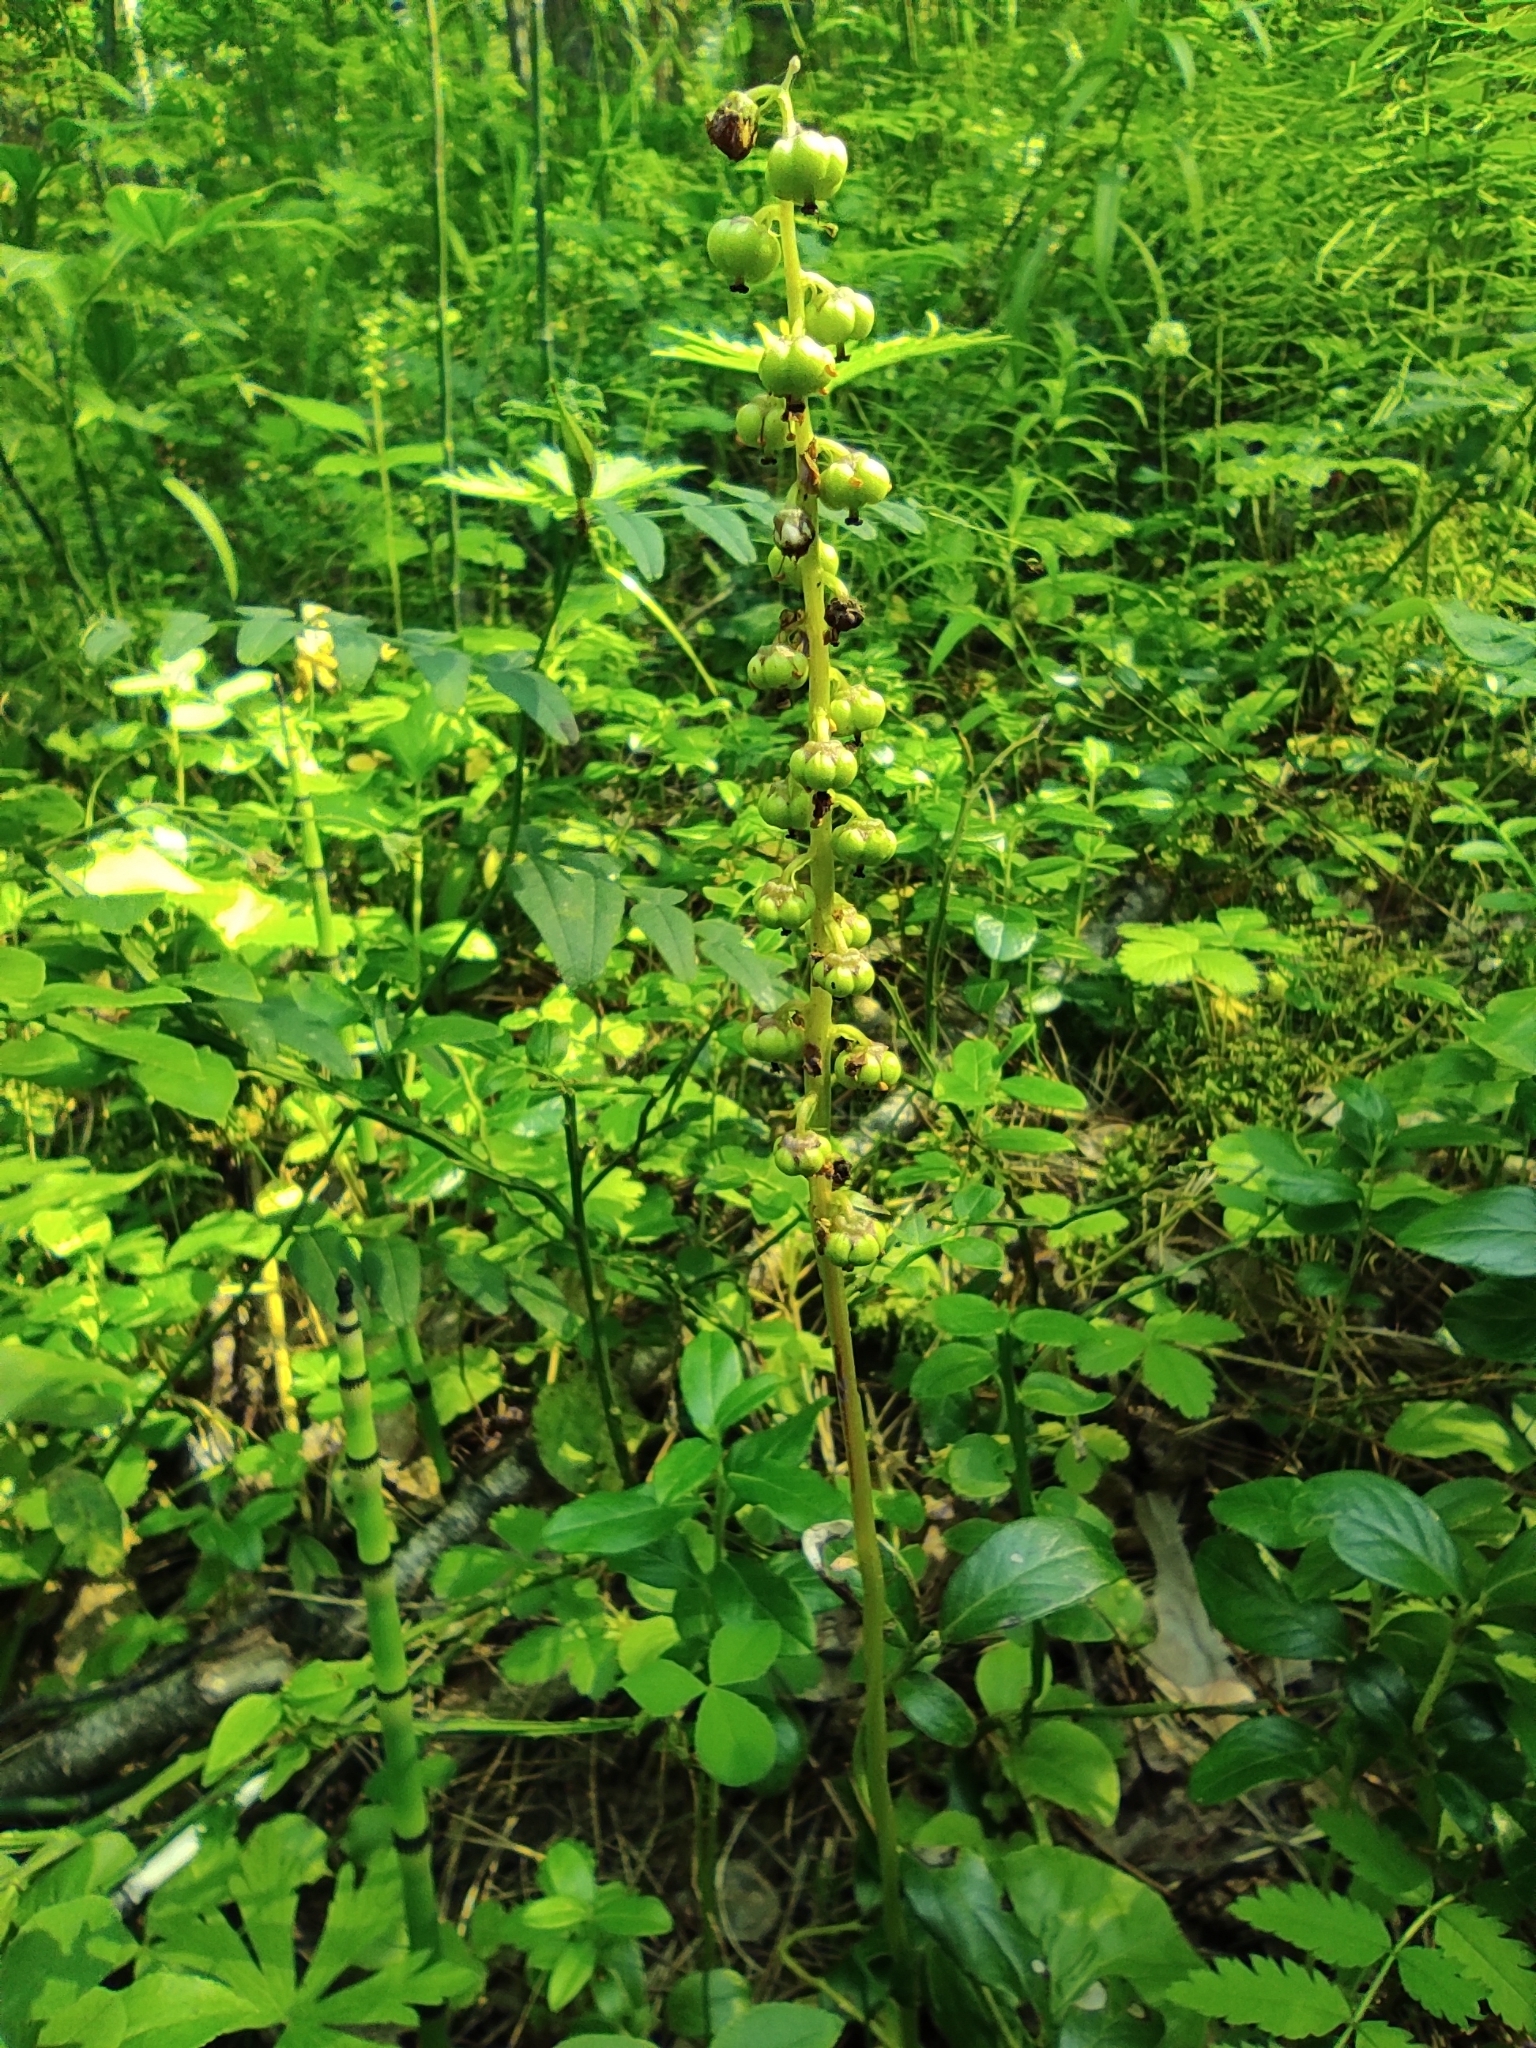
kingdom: Plantae
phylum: Tracheophyta
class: Magnoliopsida
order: Ericales
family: Ericaceae
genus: Pyrola
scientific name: Pyrola minor
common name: Common wintergreen
